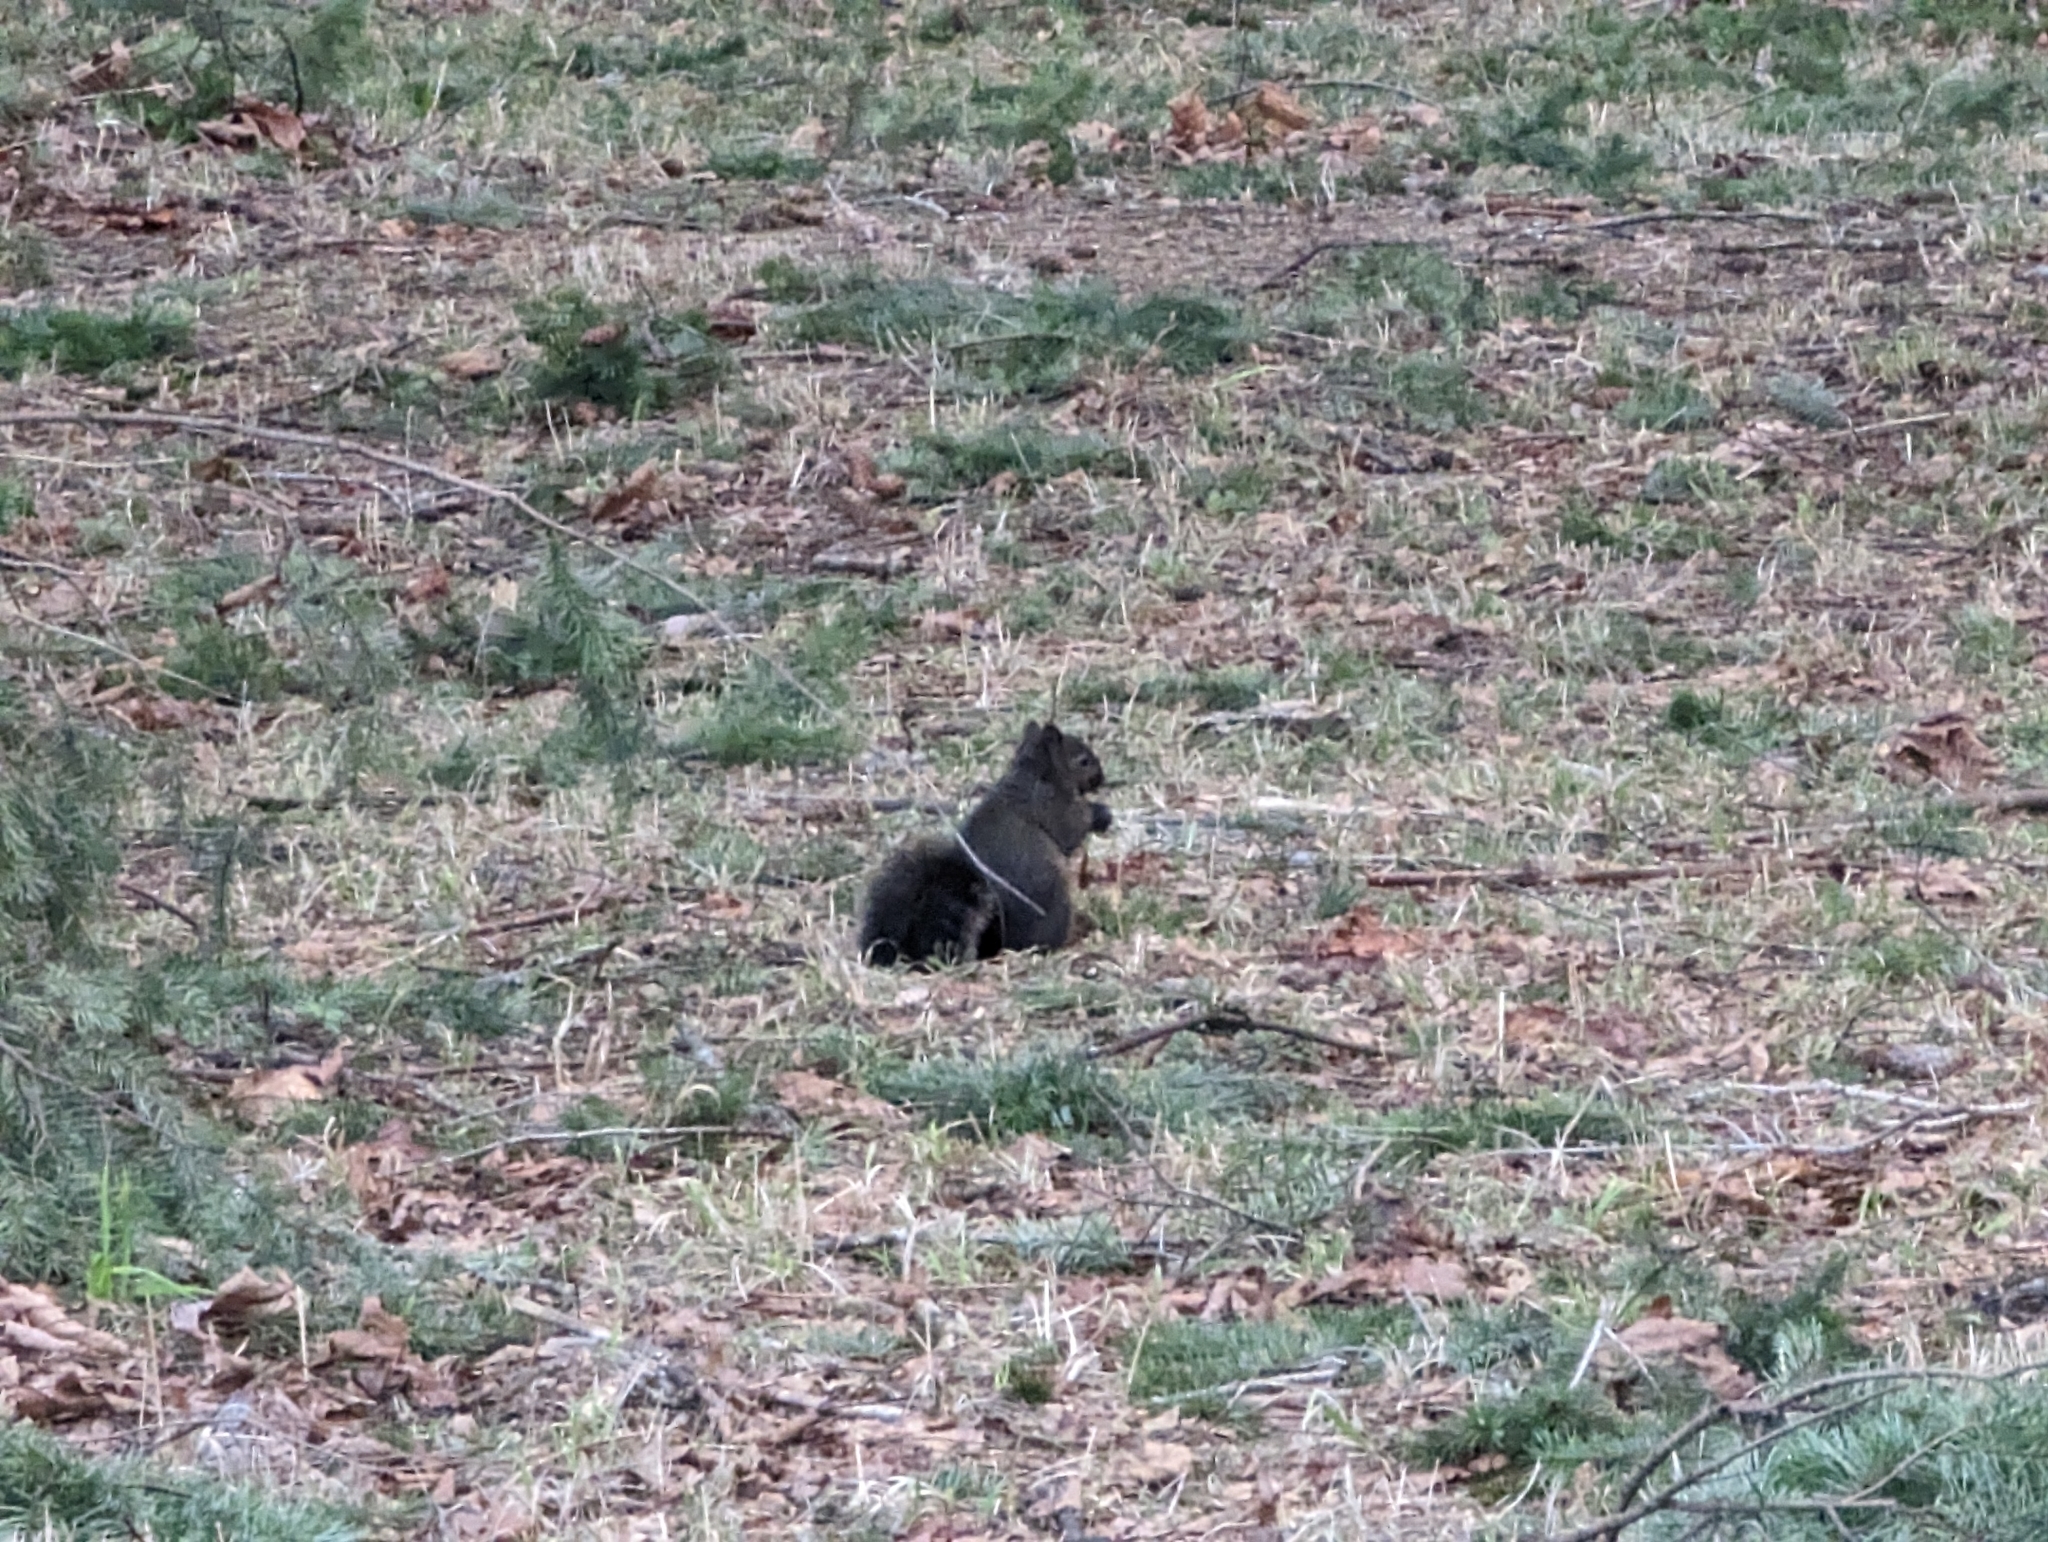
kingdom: Animalia
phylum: Chordata
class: Mammalia
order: Rodentia
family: Sciuridae
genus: Sciurus
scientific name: Sciurus carolinensis
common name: Eastern gray squirrel
